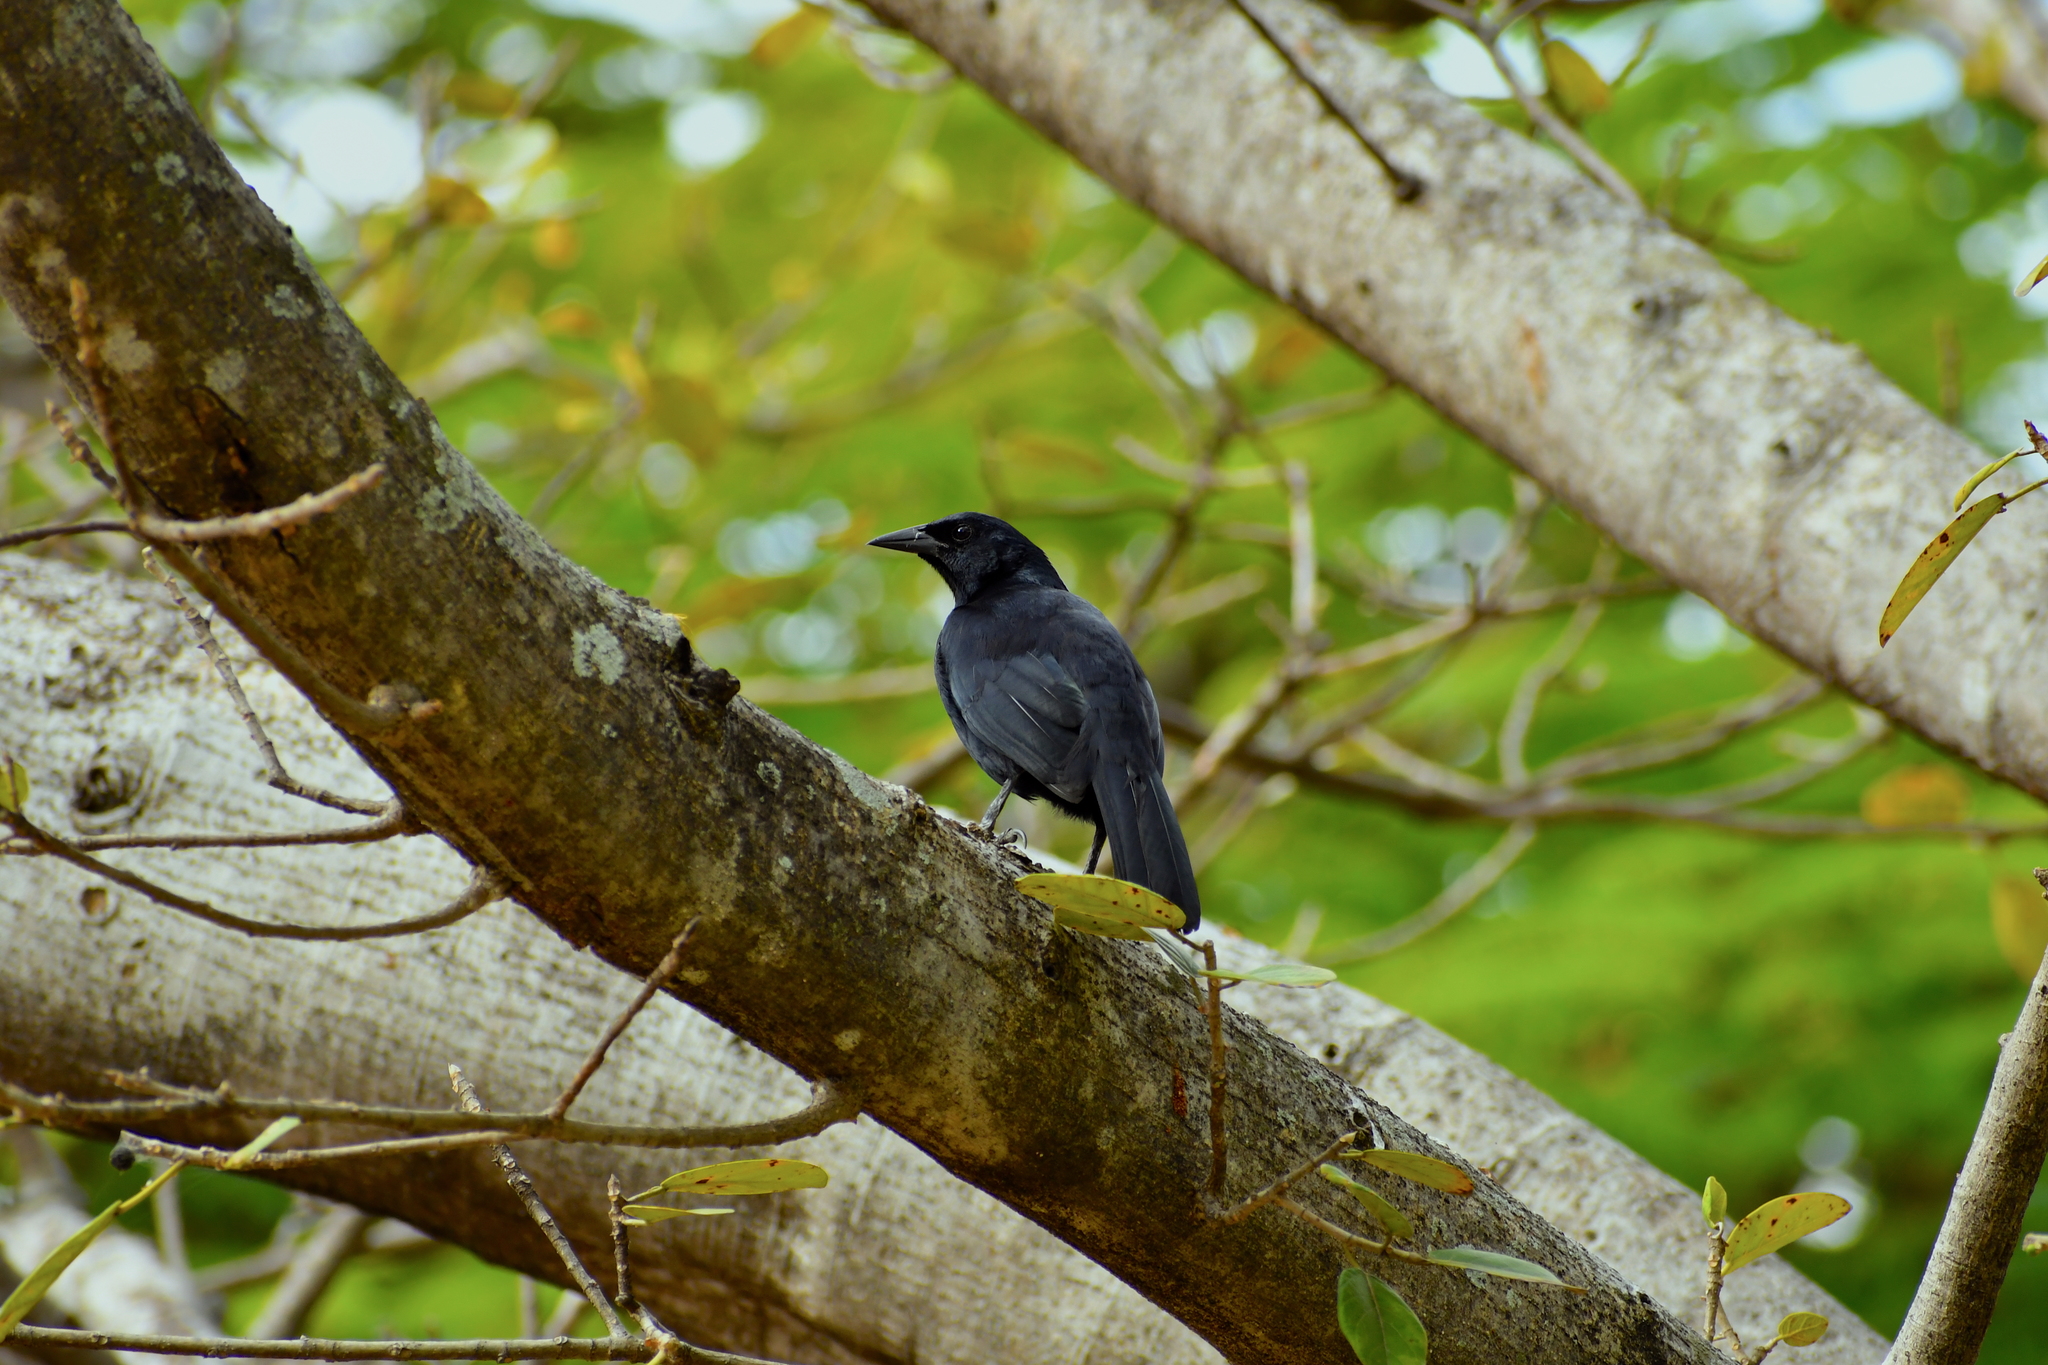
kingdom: Animalia
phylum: Chordata
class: Aves
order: Passeriformes
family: Icteridae
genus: Dives
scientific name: Dives dives
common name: Melodious blackbird
